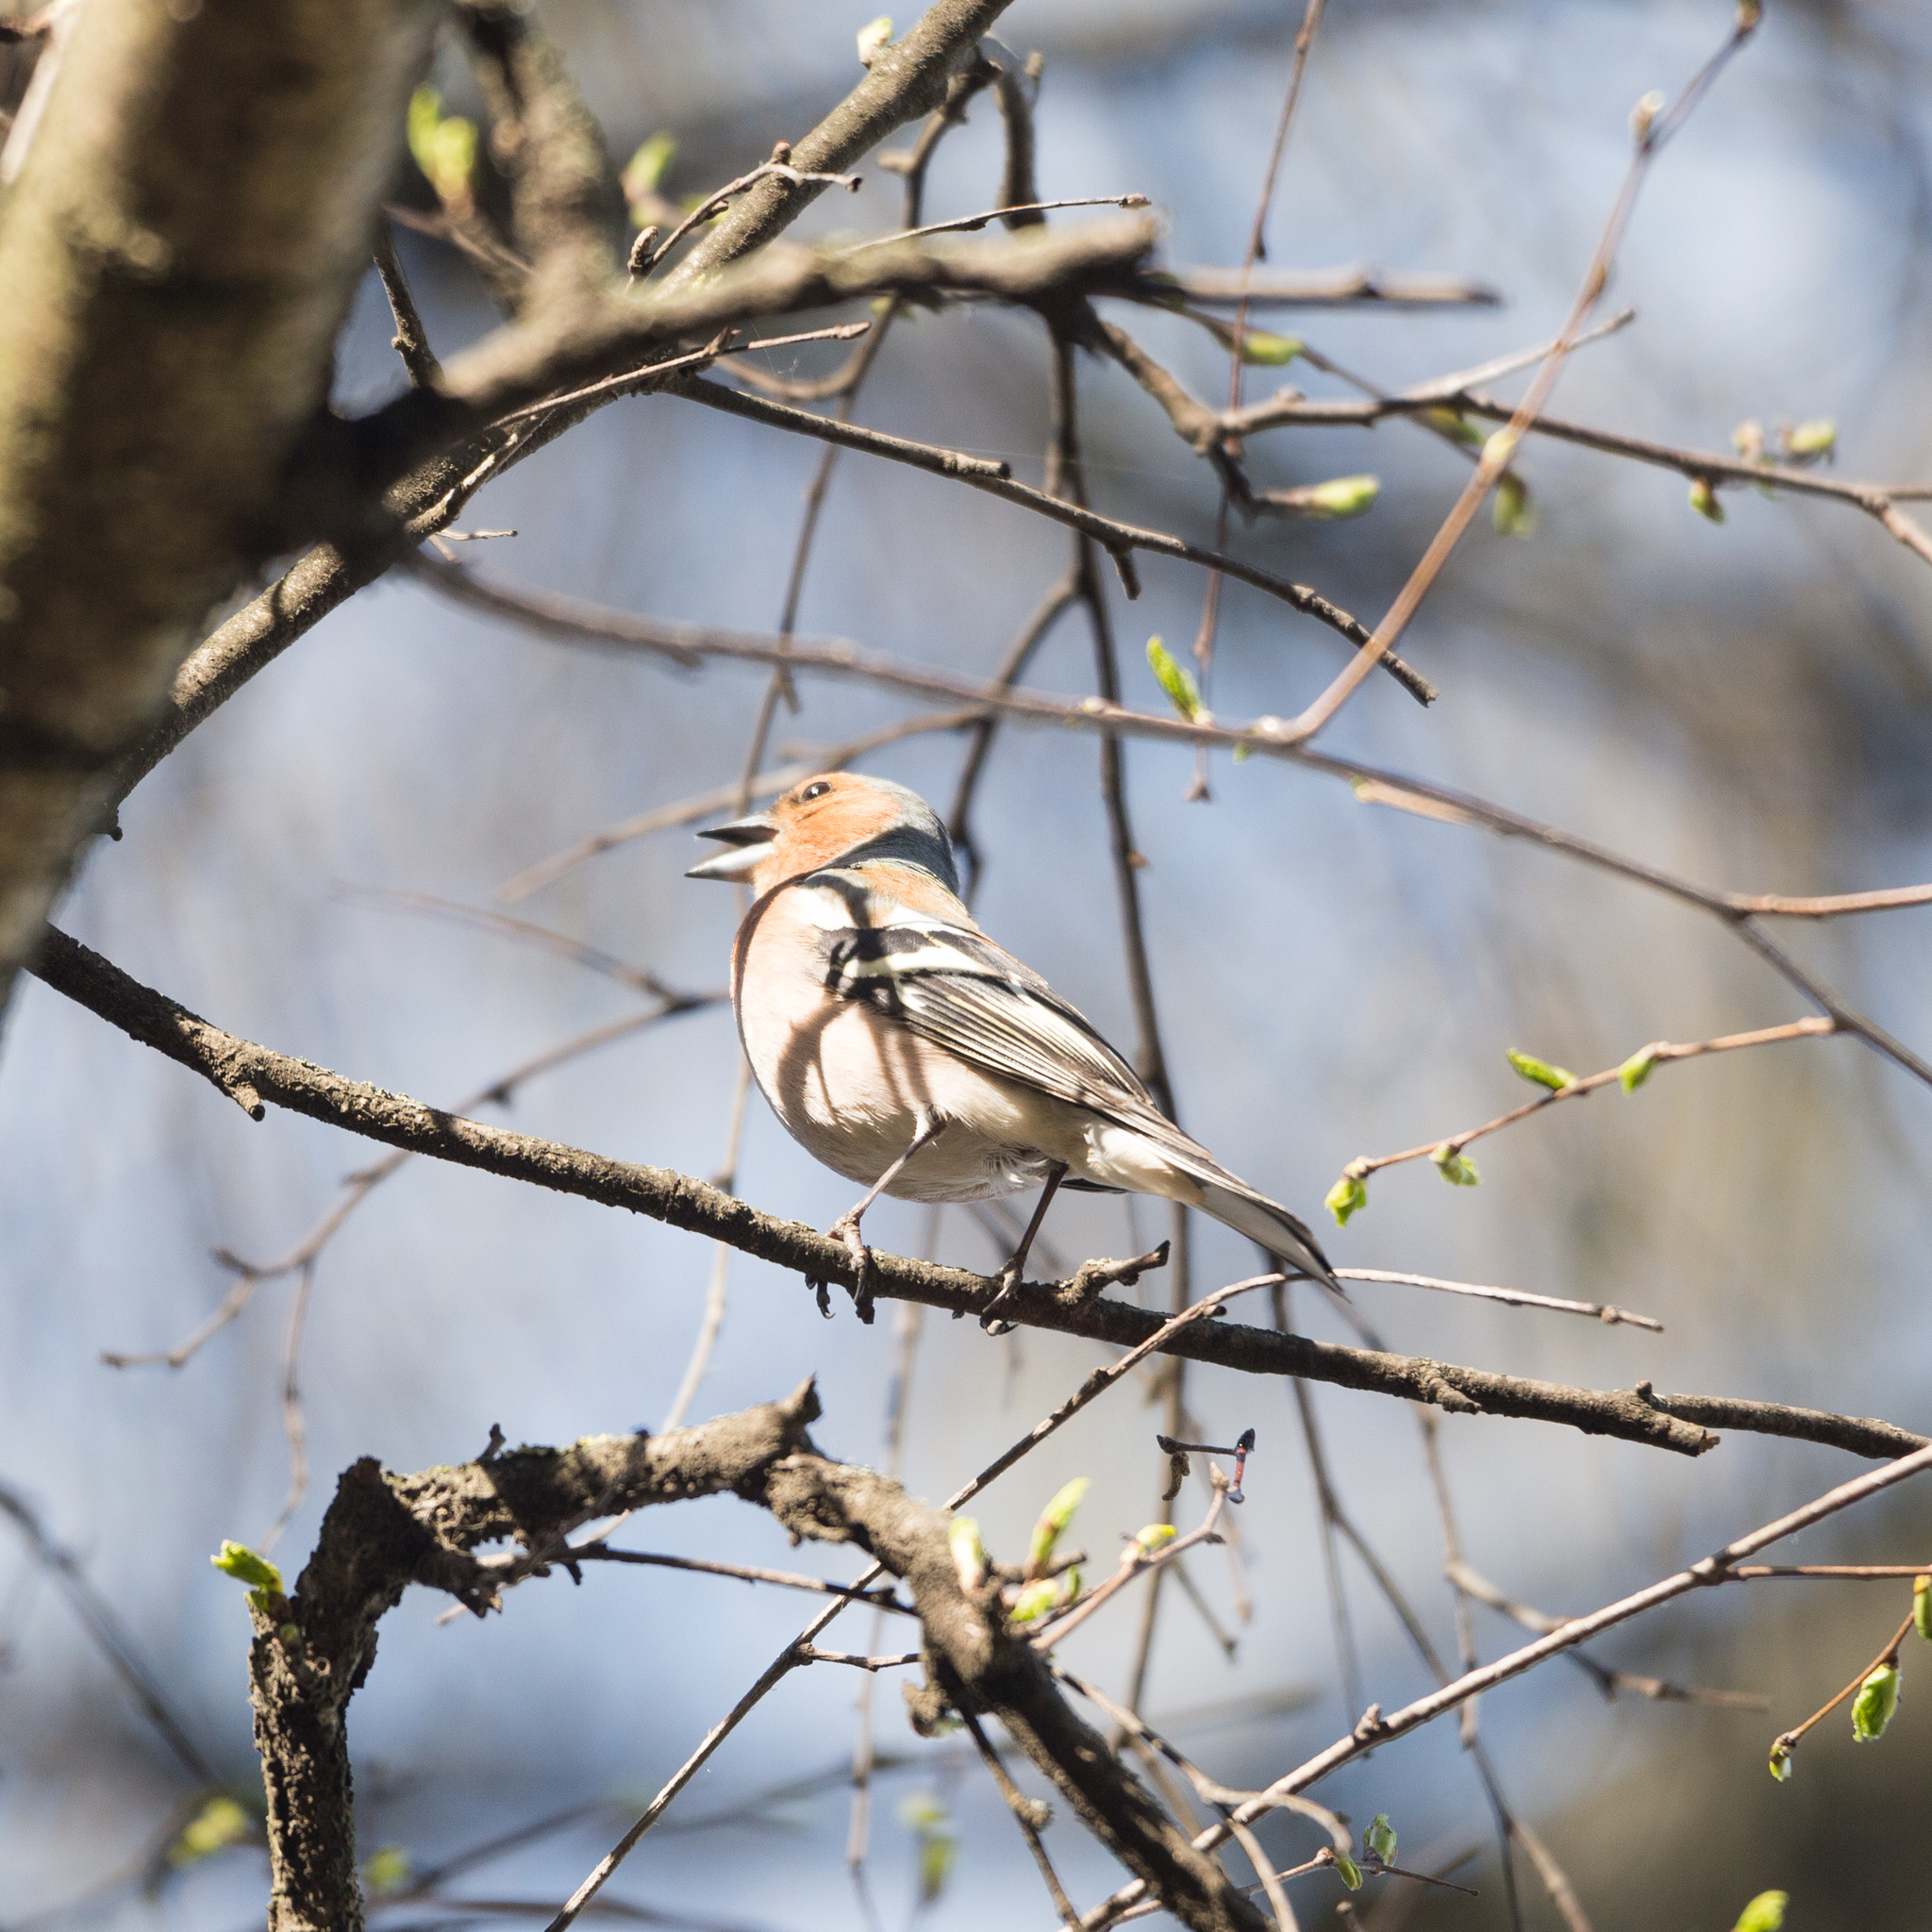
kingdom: Animalia
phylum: Chordata
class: Aves
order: Passeriformes
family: Fringillidae
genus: Fringilla
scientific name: Fringilla coelebs
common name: Common chaffinch
